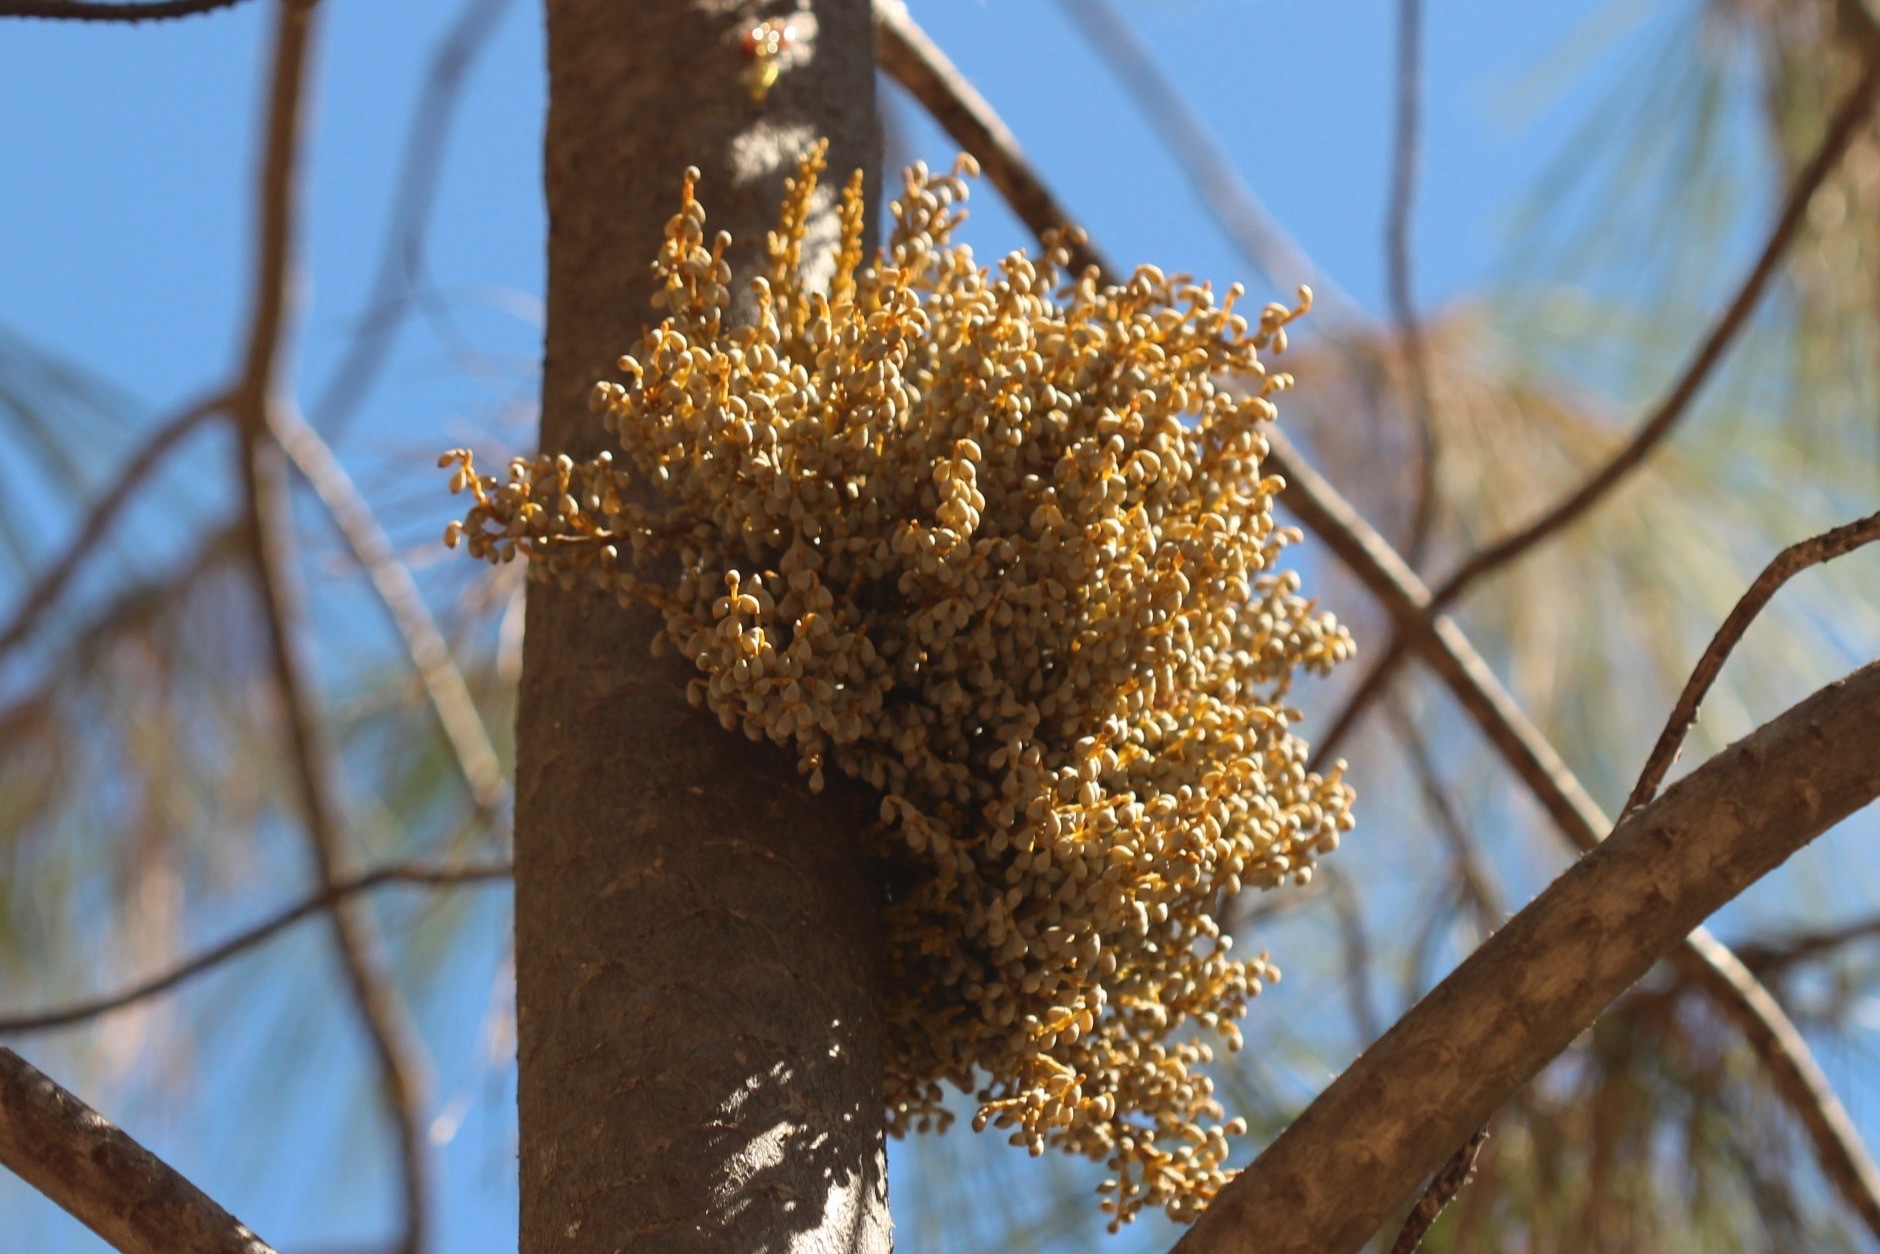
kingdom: Plantae
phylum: Tracheophyta
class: Magnoliopsida
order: Santalales
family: Viscaceae
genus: Arceuthobium
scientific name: Arceuthobium campylopodum
